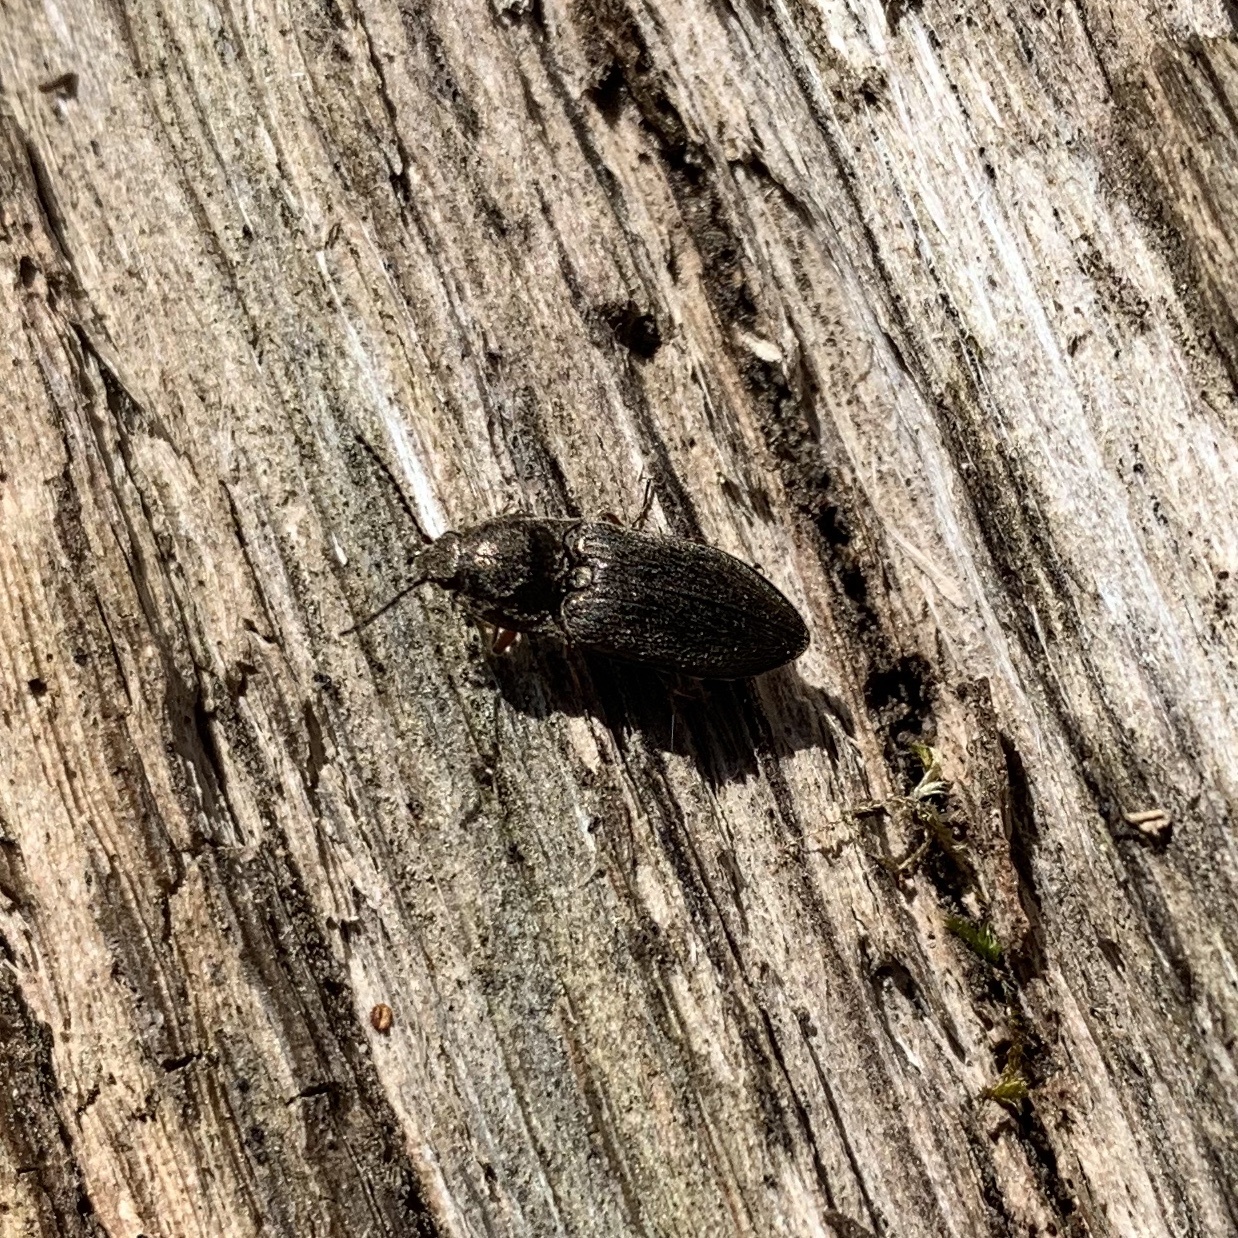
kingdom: Animalia
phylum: Arthropoda
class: Insecta
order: Coleoptera
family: Elateridae
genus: Hadromorphus
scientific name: Hadromorphus inflatus
